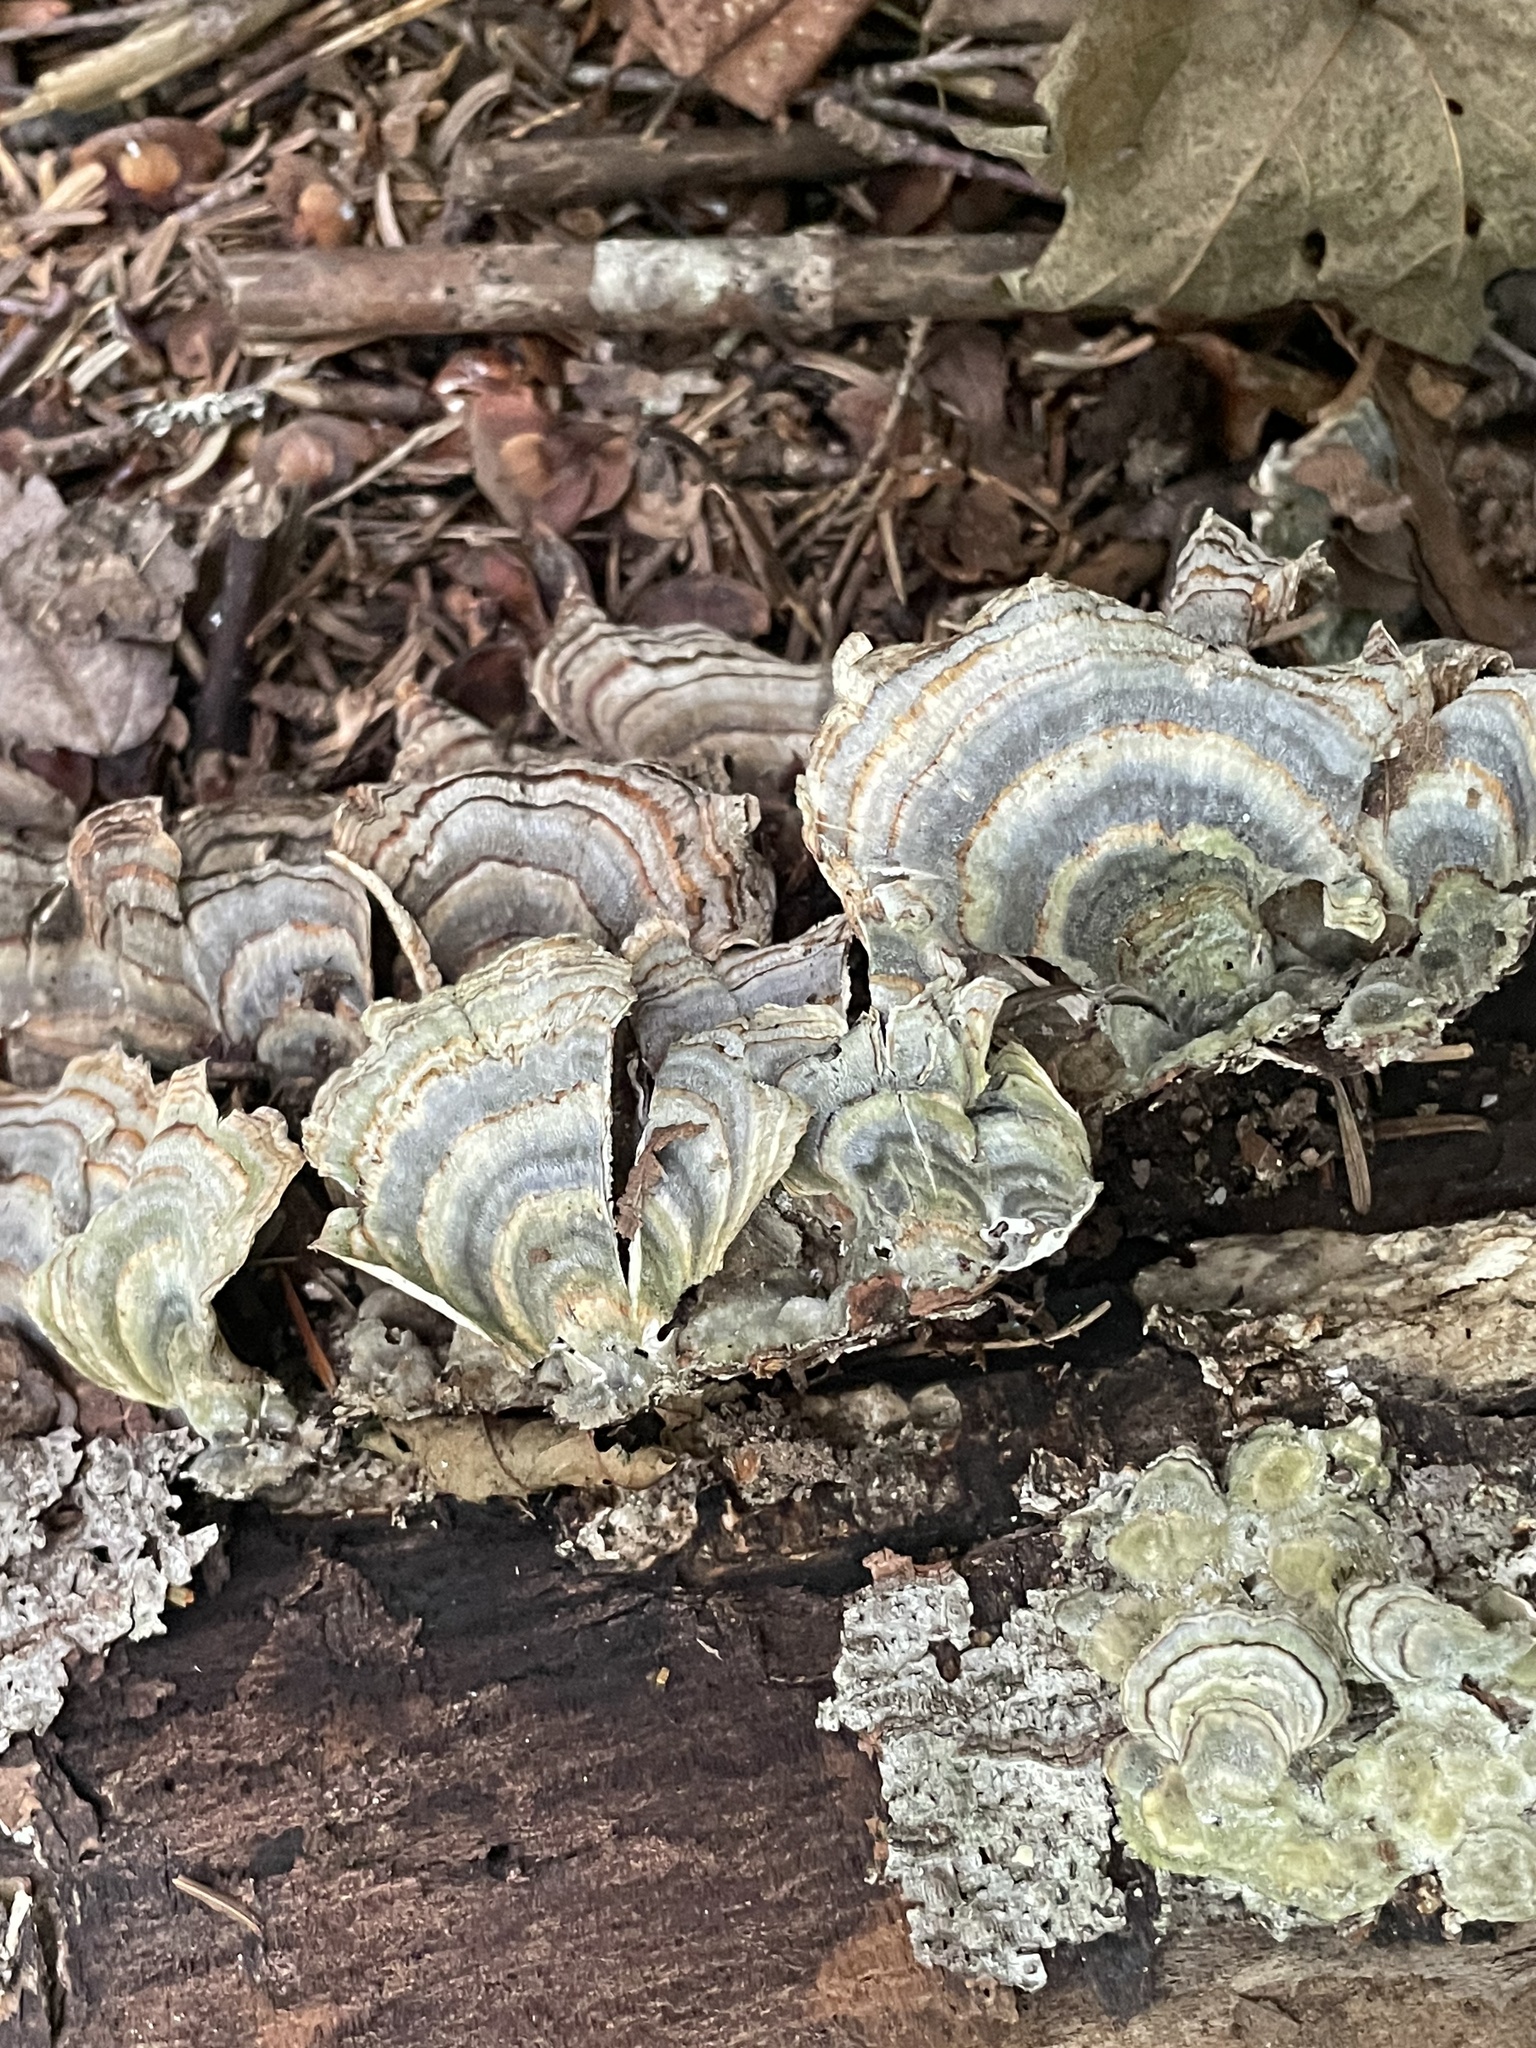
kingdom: Fungi
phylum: Basidiomycota
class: Agaricomycetes
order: Polyporales
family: Polyporaceae
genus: Trametes
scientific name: Trametes versicolor
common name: Turkeytail
